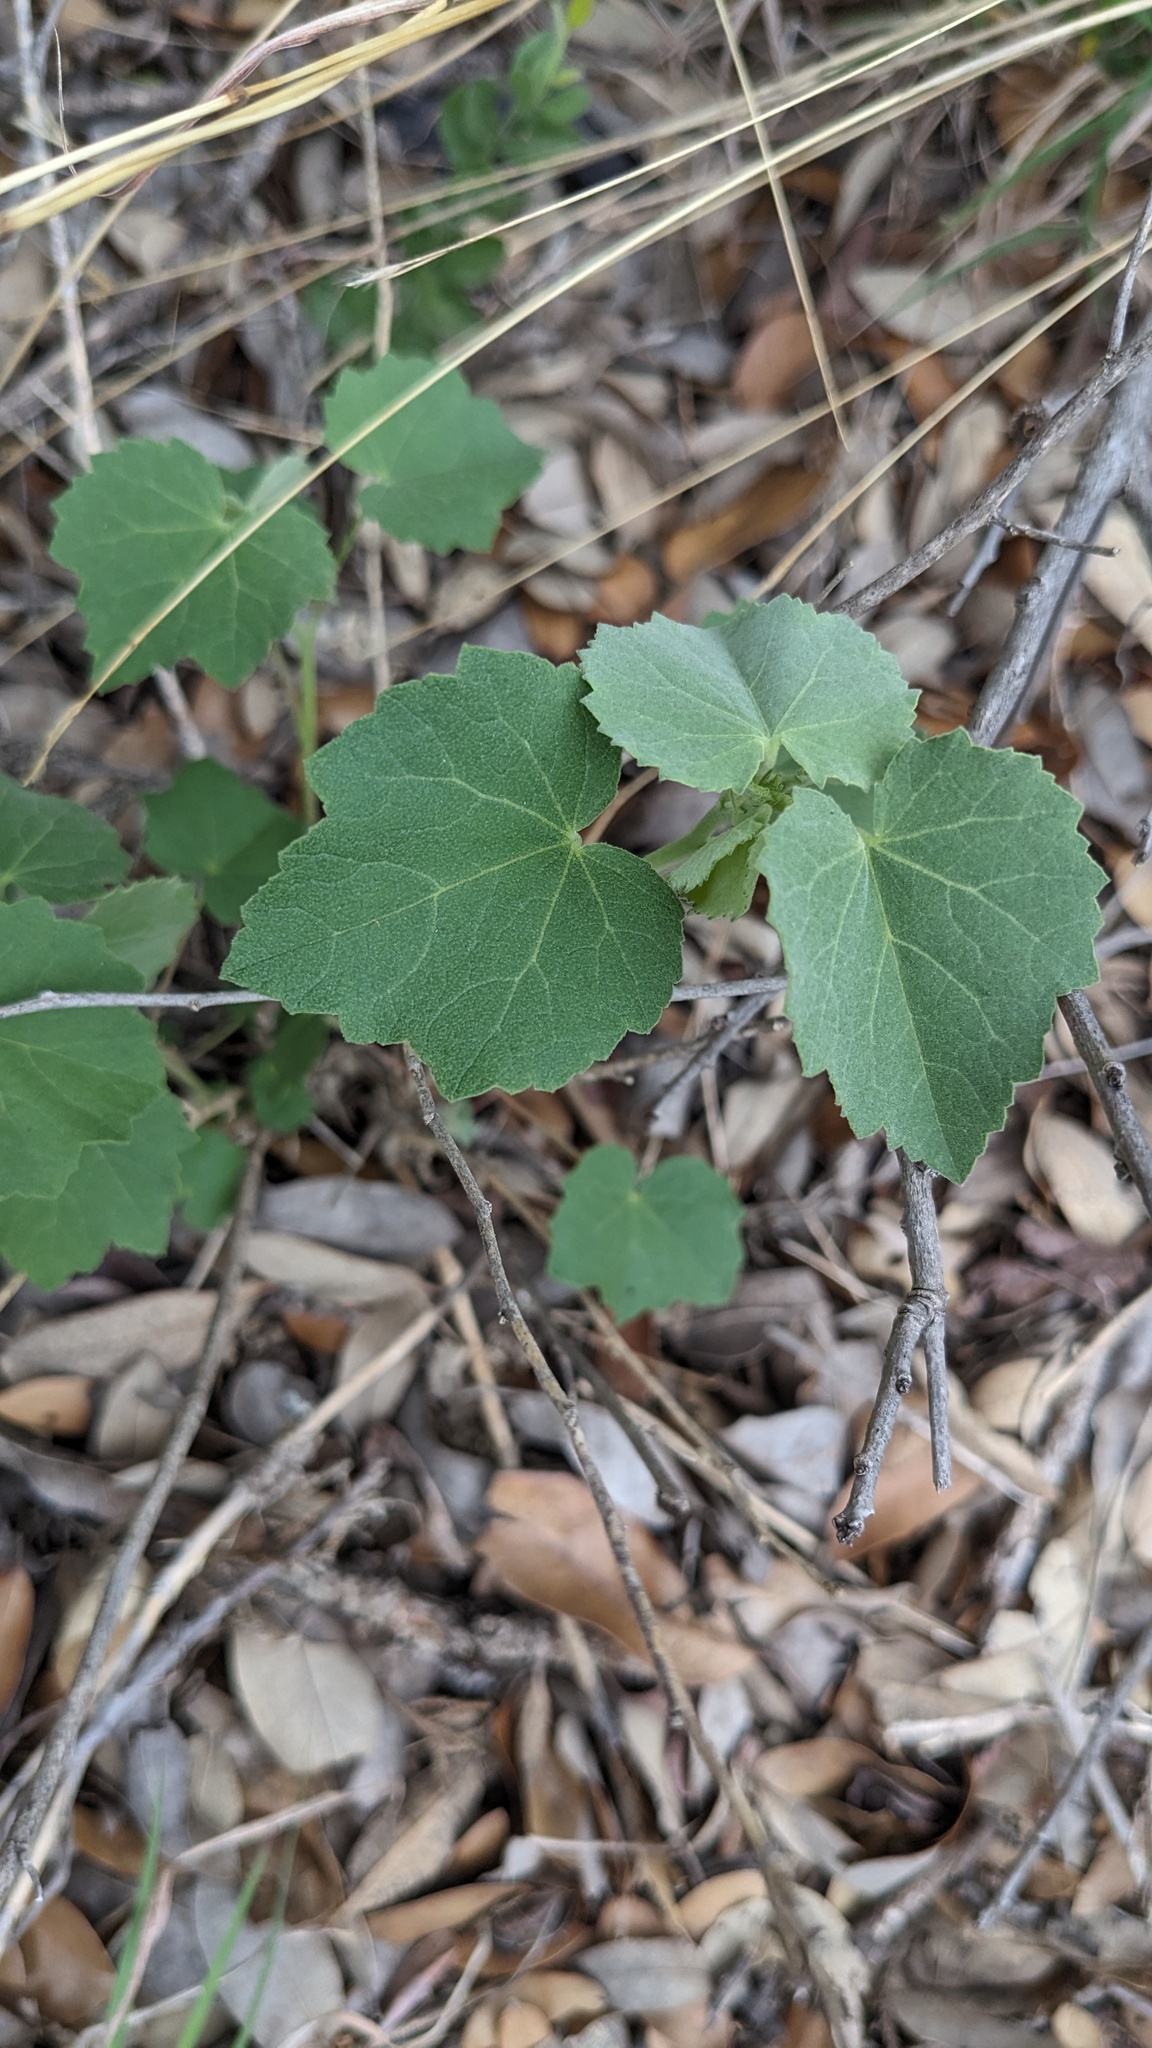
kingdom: Plantae
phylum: Tracheophyta
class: Magnoliopsida
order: Malvales
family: Malvaceae
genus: Abutilon
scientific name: Abutilon fruticosum
